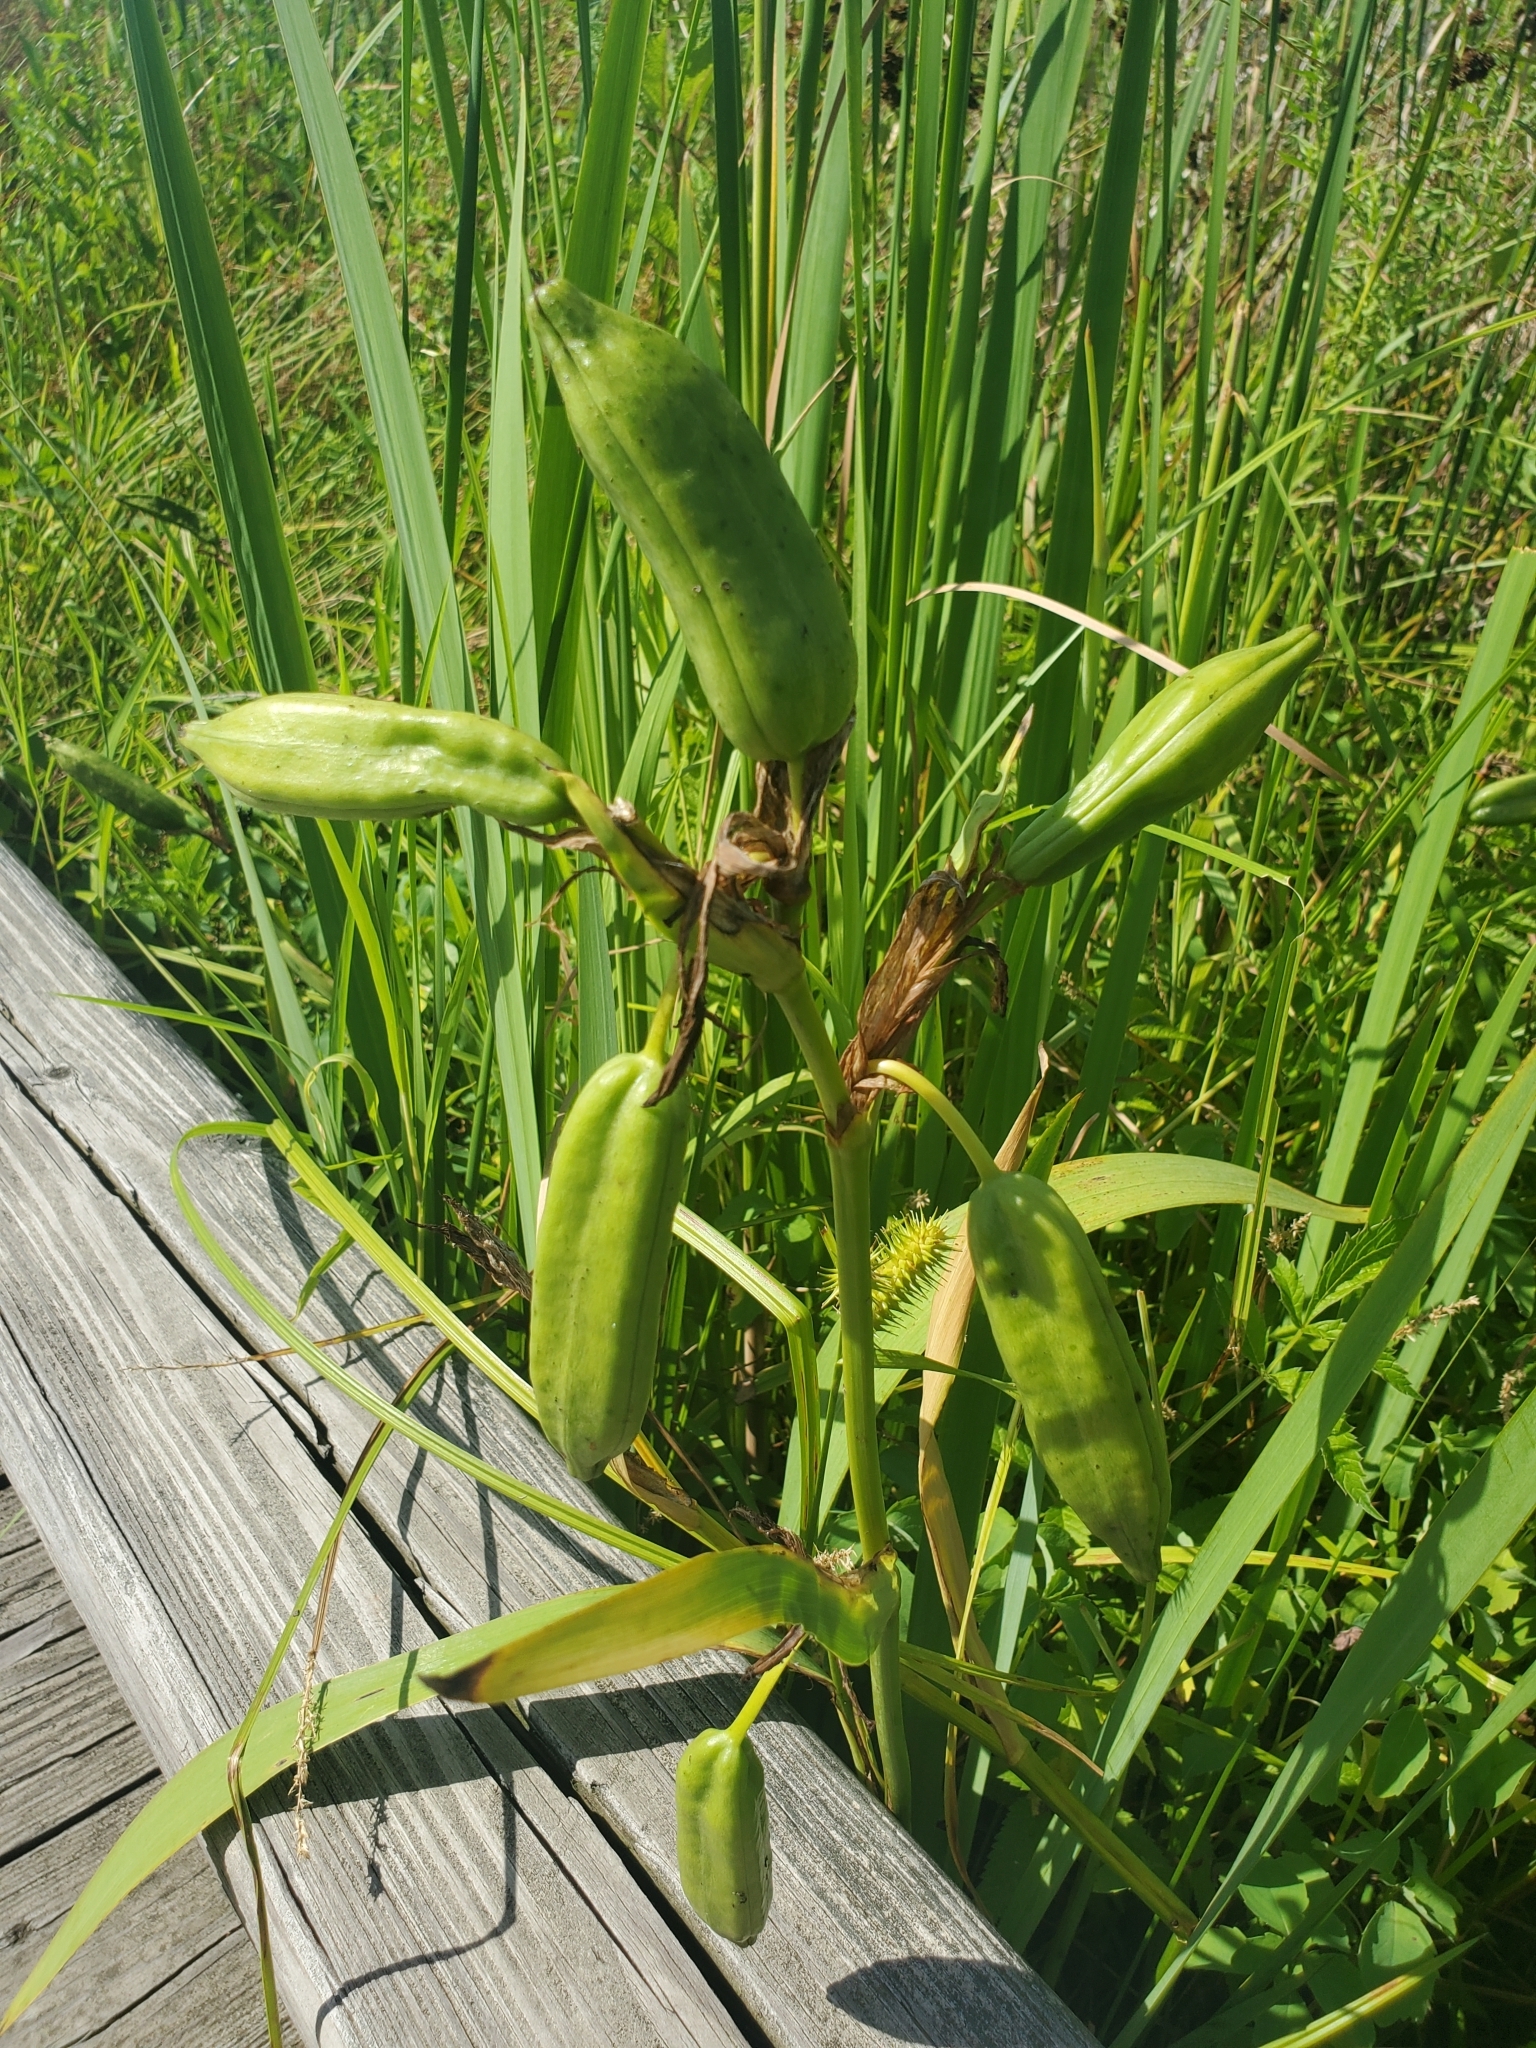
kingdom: Plantae
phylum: Tracheophyta
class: Liliopsida
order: Asparagales
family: Iridaceae
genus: Iris
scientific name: Iris pseudacorus
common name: Yellow flag
